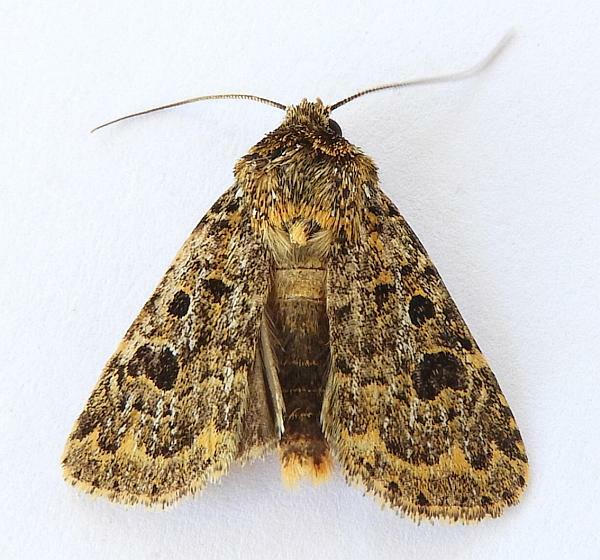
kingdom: Animalia
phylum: Arthropoda
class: Insecta
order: Lepidoptera
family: Noctuidae
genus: Synorthodes
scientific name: Synorthodes auriginea
